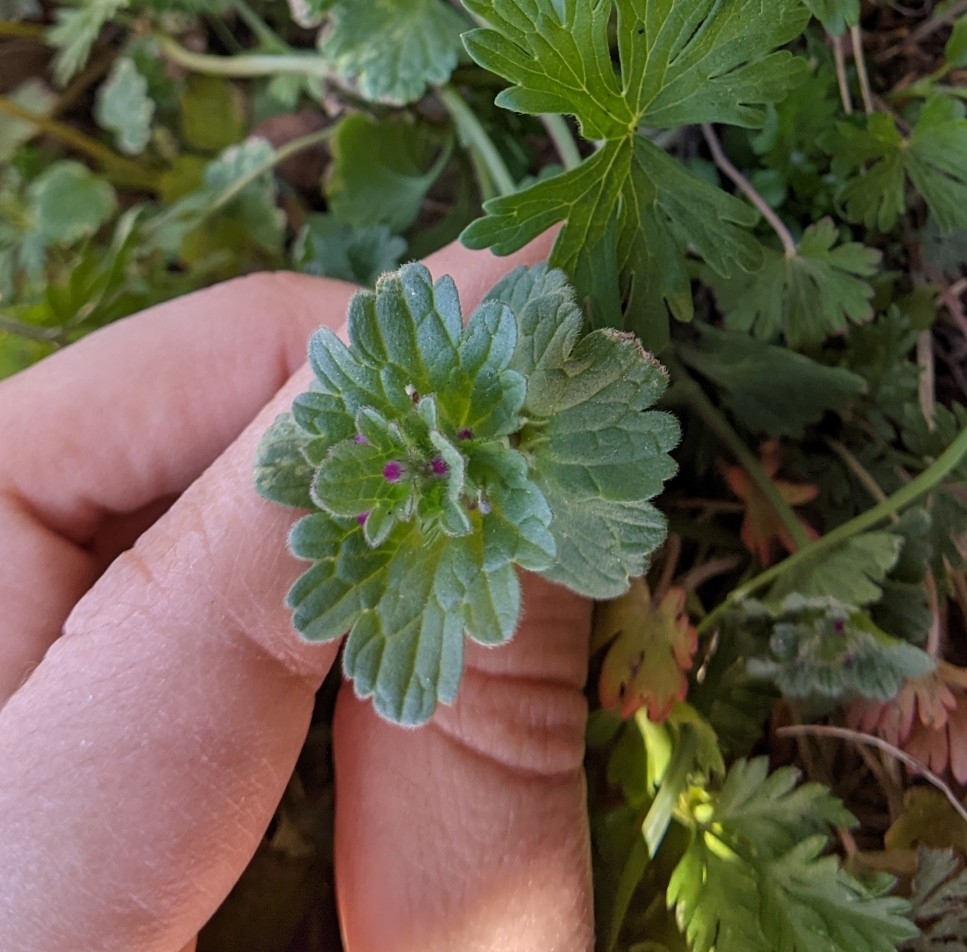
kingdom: Plantae
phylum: Tracheophyta
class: Magnoliopsida
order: Lamiales
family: Lamiaceae
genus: Lamium
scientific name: Lamium amplexicaule
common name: Henbit dead-nettle
